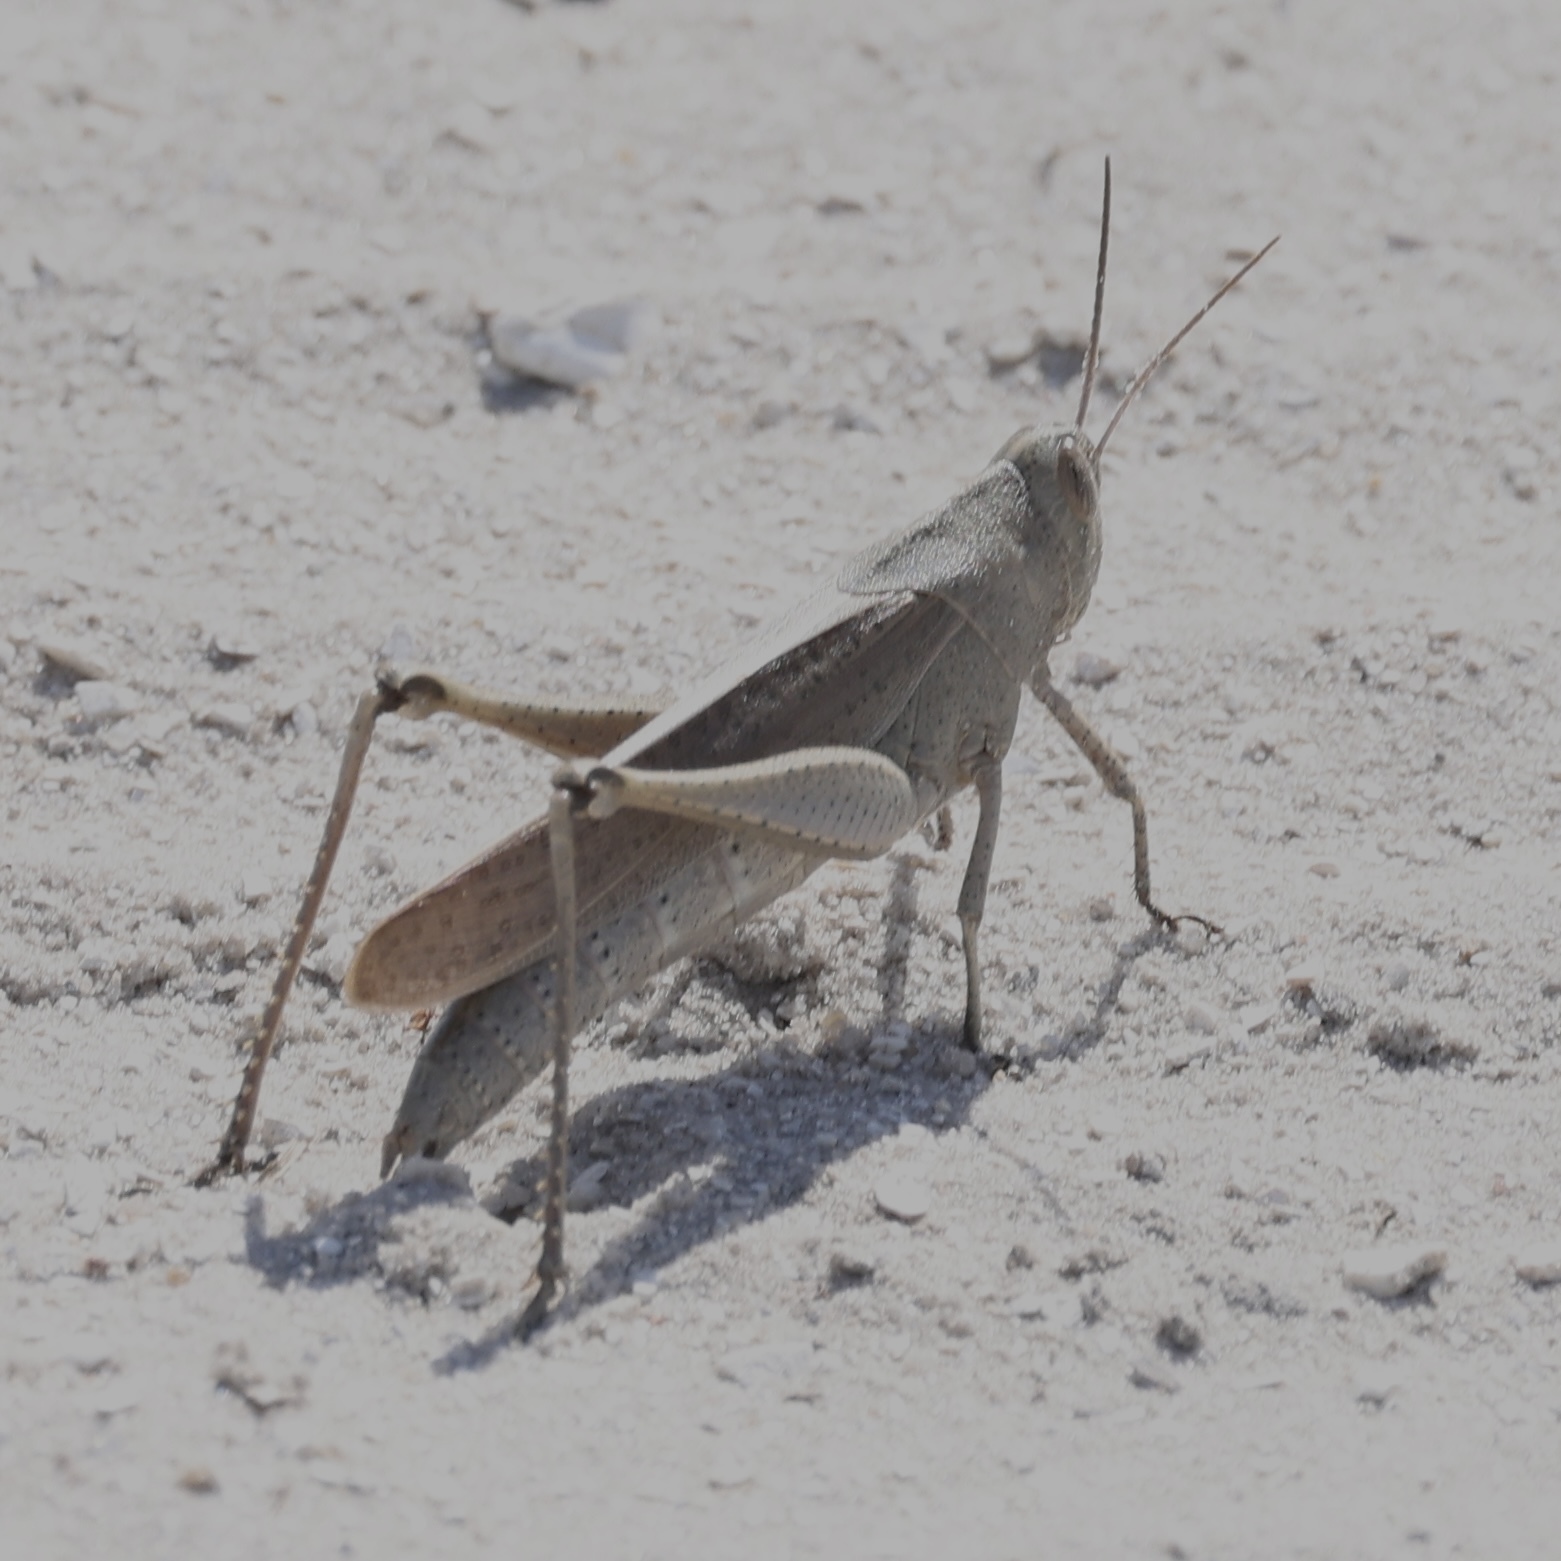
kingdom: Animalia
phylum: Arthropoda
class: Insecta
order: Orthoptera
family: Acrididae
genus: Schistocerca
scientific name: Schistocerca damnifica
